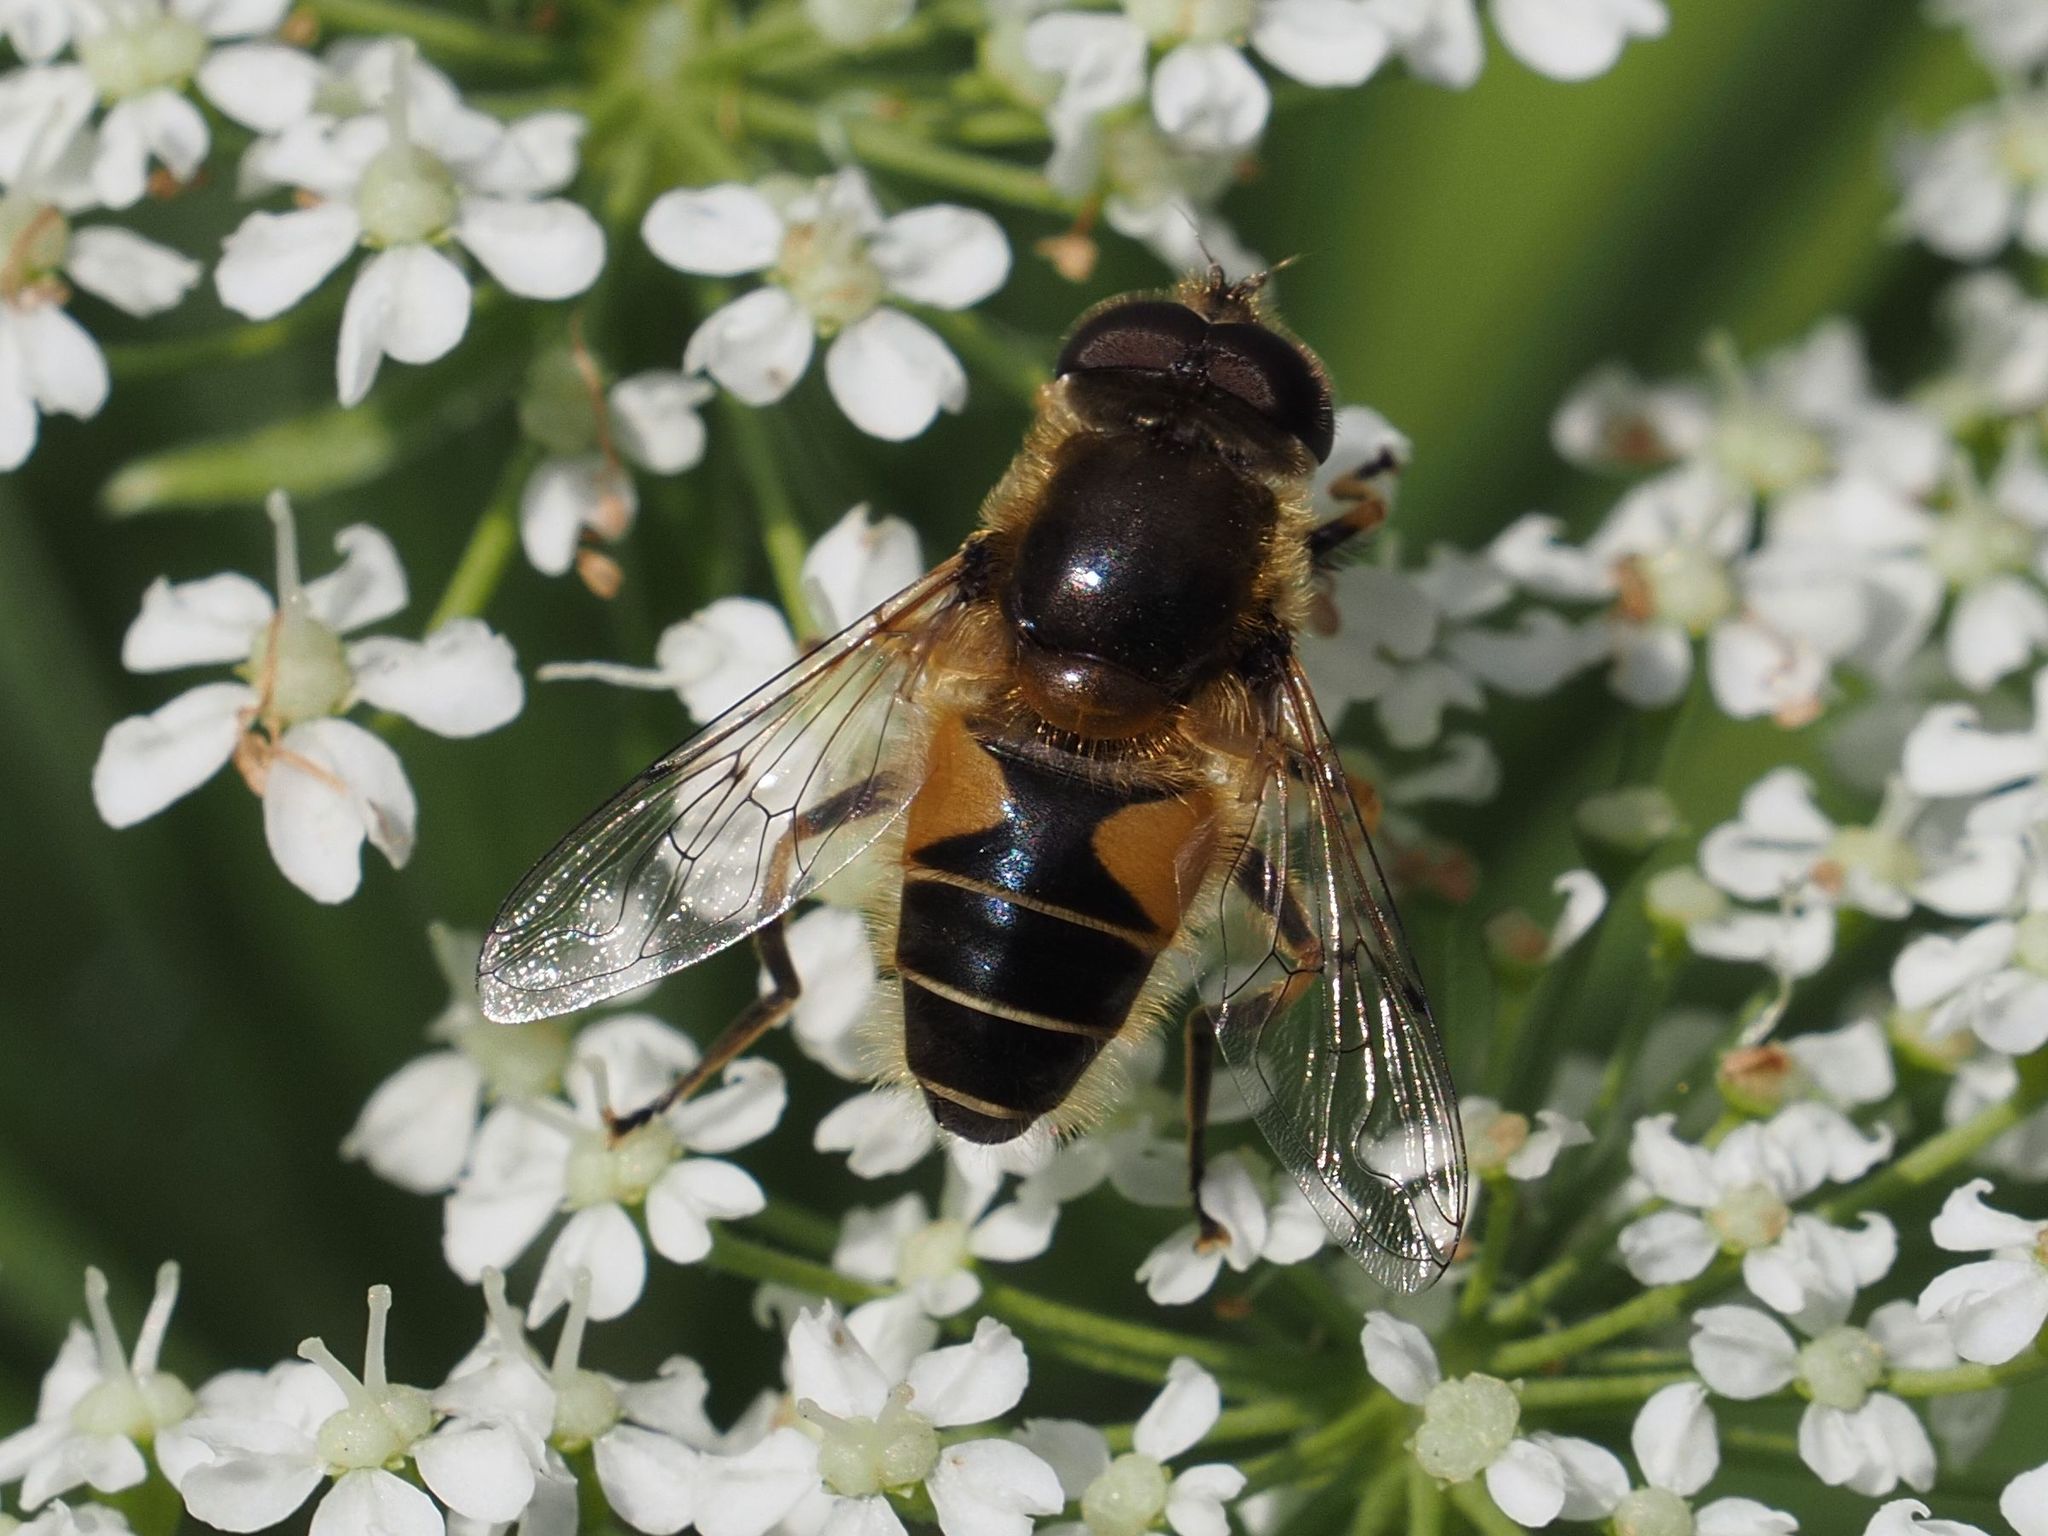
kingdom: Animalia
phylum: Arthropoda
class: Insecta
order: Diptera
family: Syrphidae
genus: Eristalis
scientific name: Eristalis jugorum
